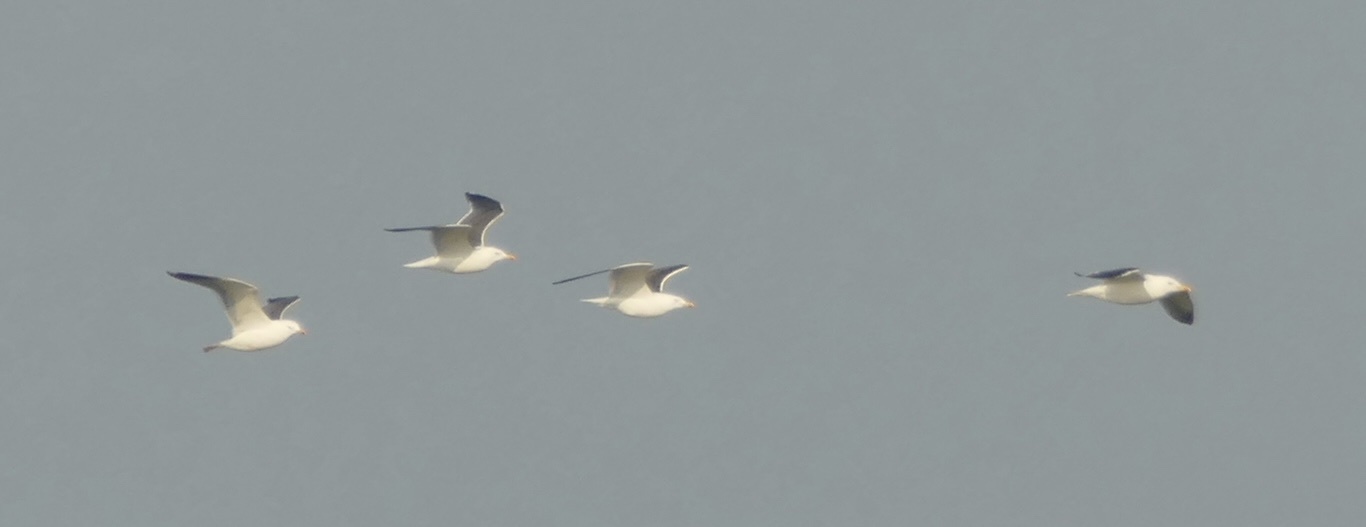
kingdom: Animalia
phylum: Chordata
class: Aves
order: Charadriiformes
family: Laridae
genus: Larus
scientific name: Larus fuscus
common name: Lesser black-backed gull
